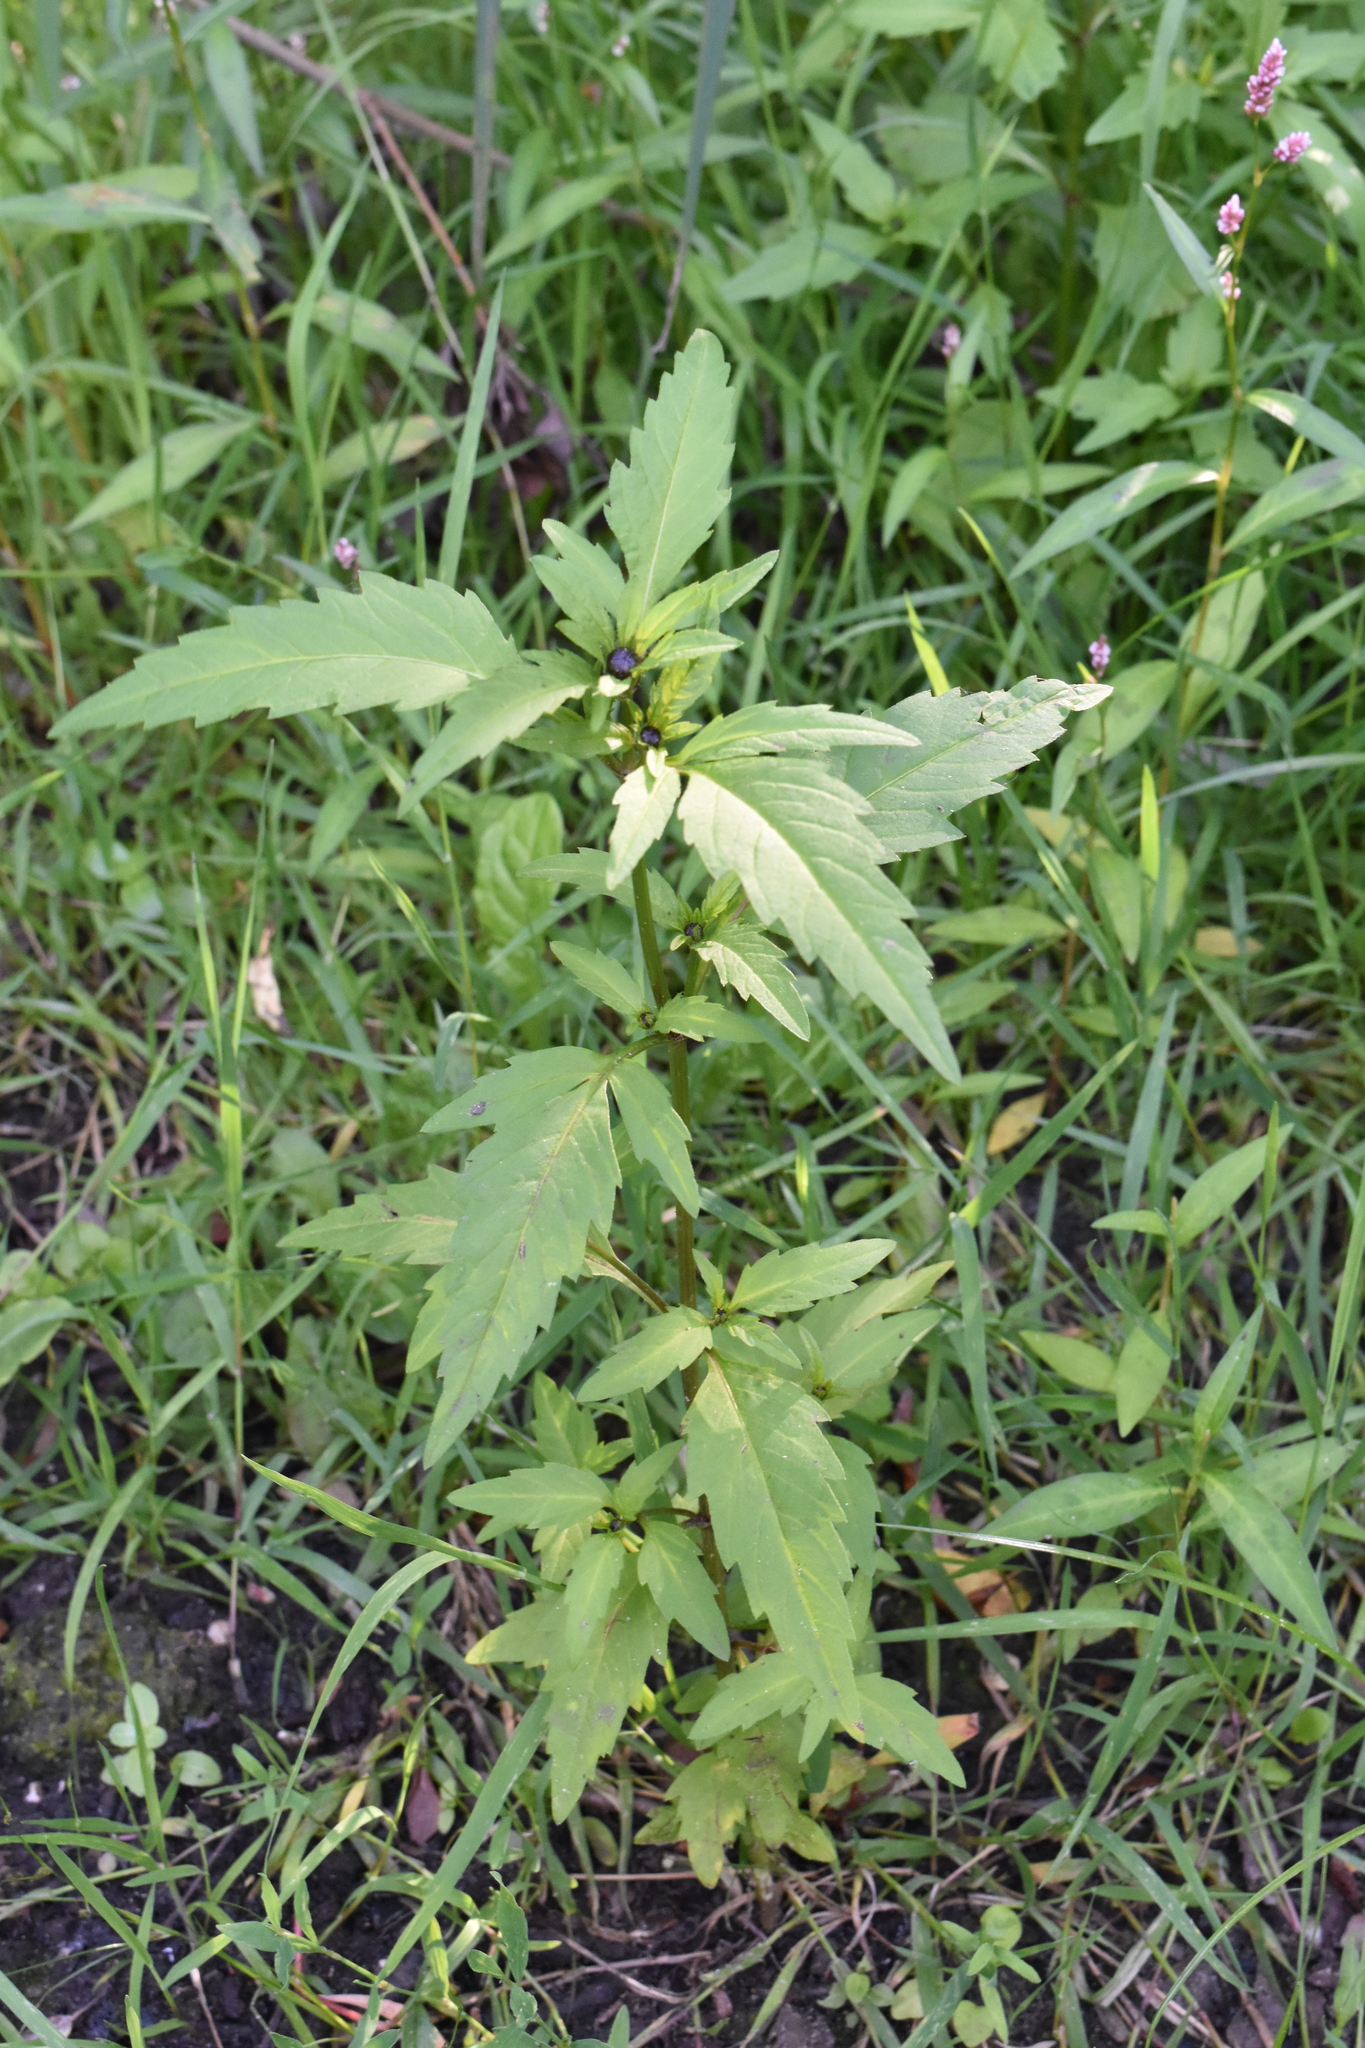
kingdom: Plantae
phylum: Tracheophyta
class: Magnoliopsida
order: Asterales
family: Asteraceae
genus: Bidens
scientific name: Bidens tripartita
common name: Trifid bur-marigold
